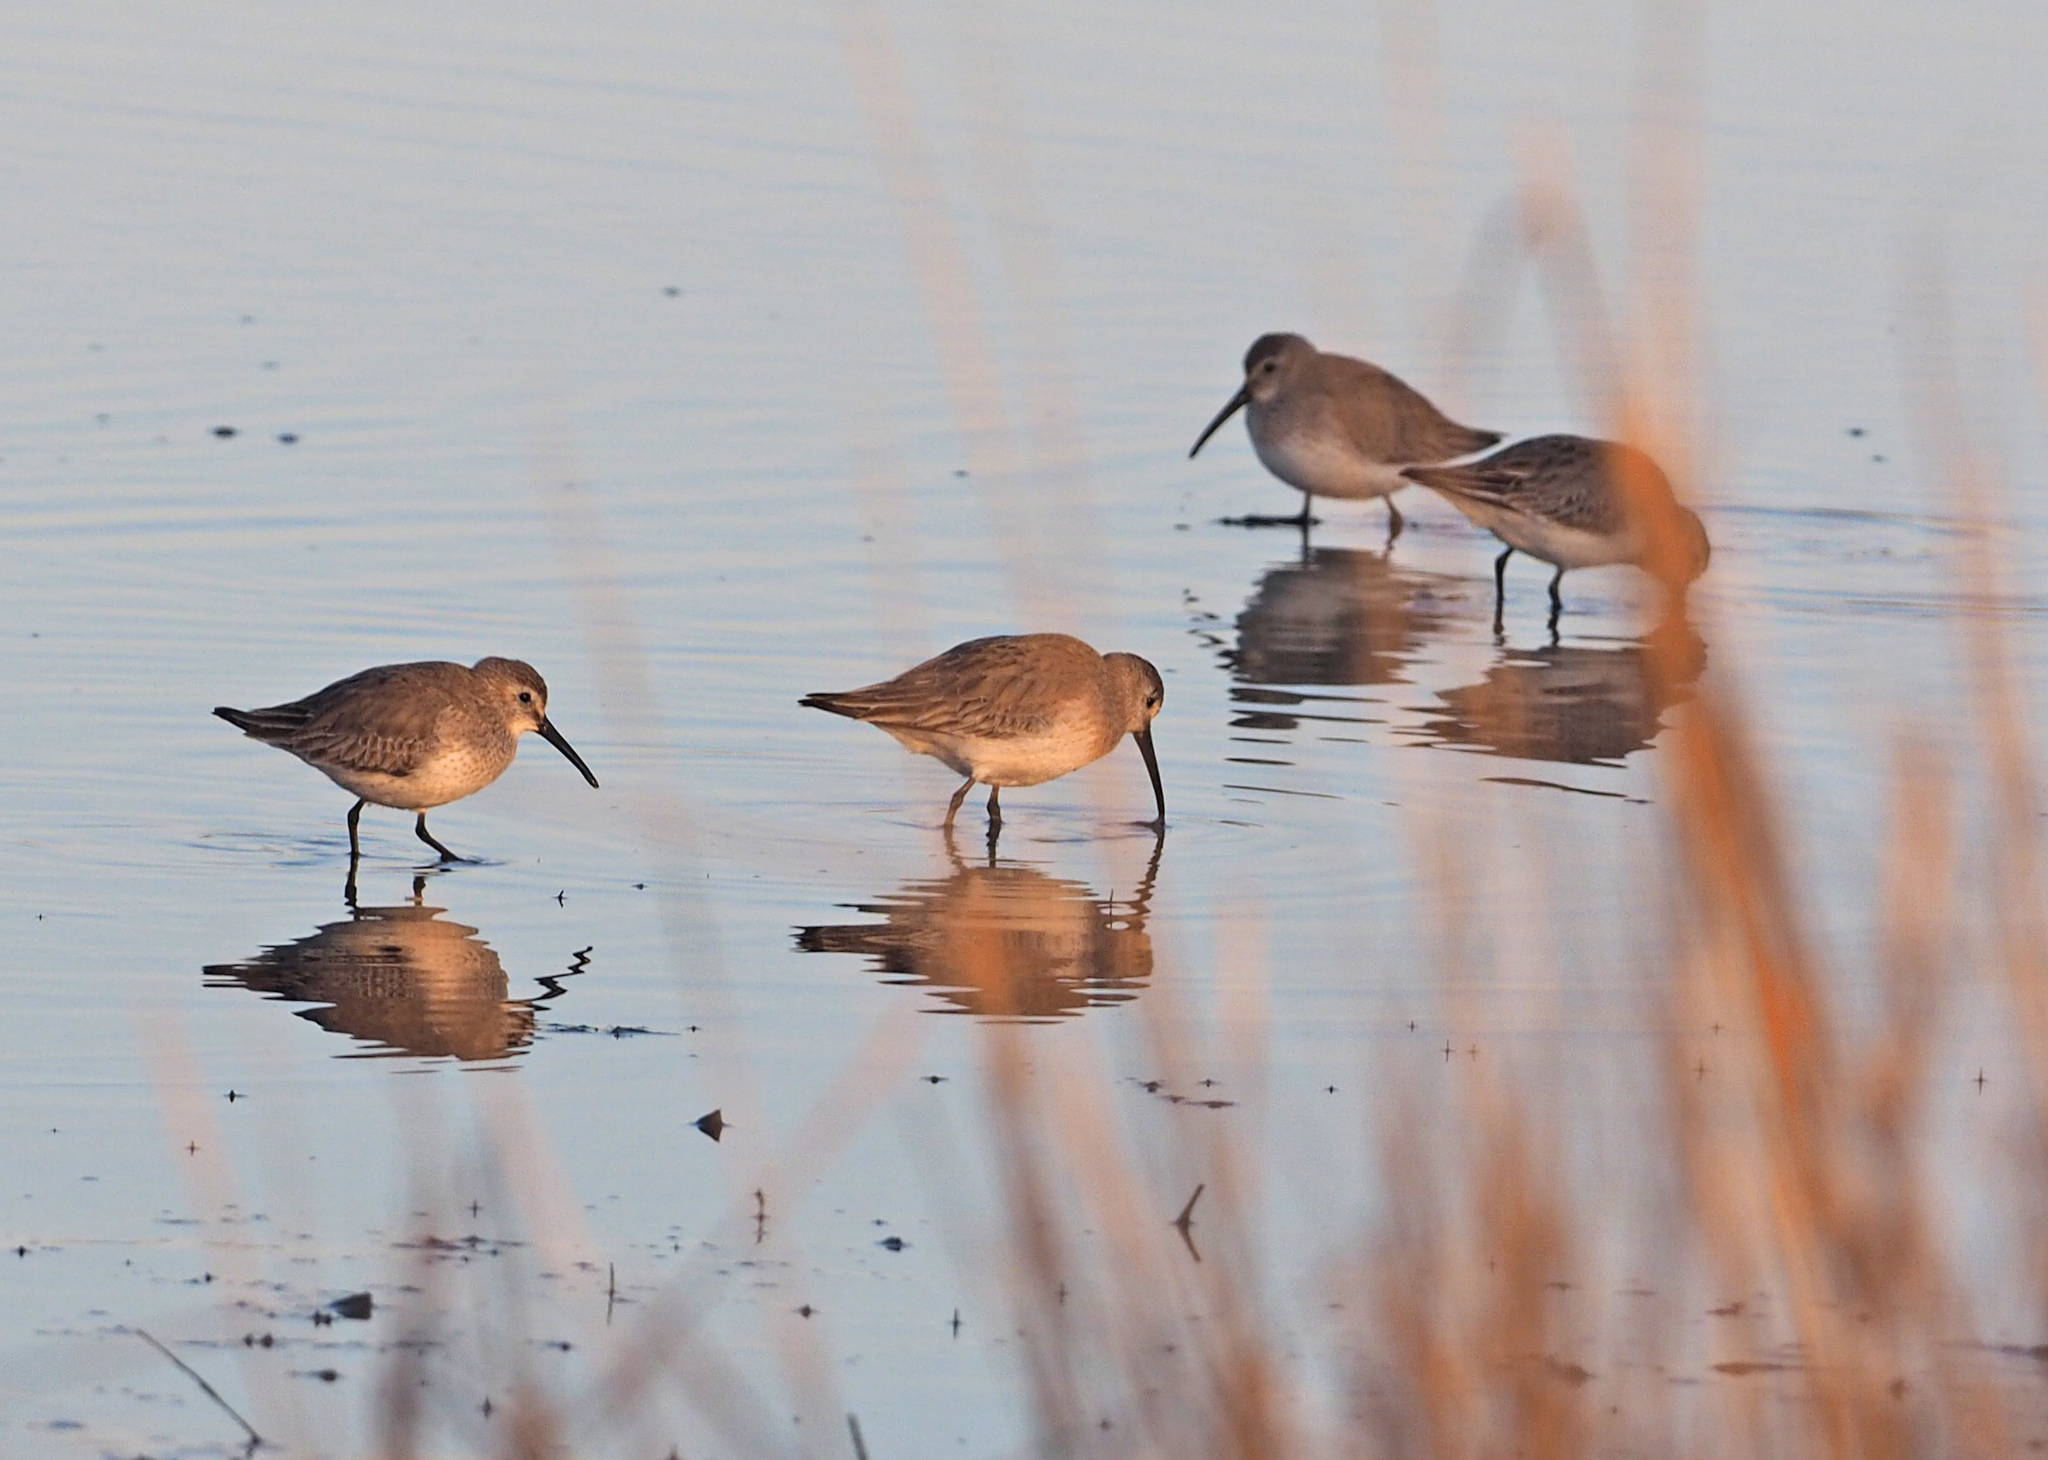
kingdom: Animalia
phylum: Chordata
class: Aves
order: Charadriiformes
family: Scolopacidae
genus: Calidris
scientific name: Calidris alpina
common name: Dunlin
